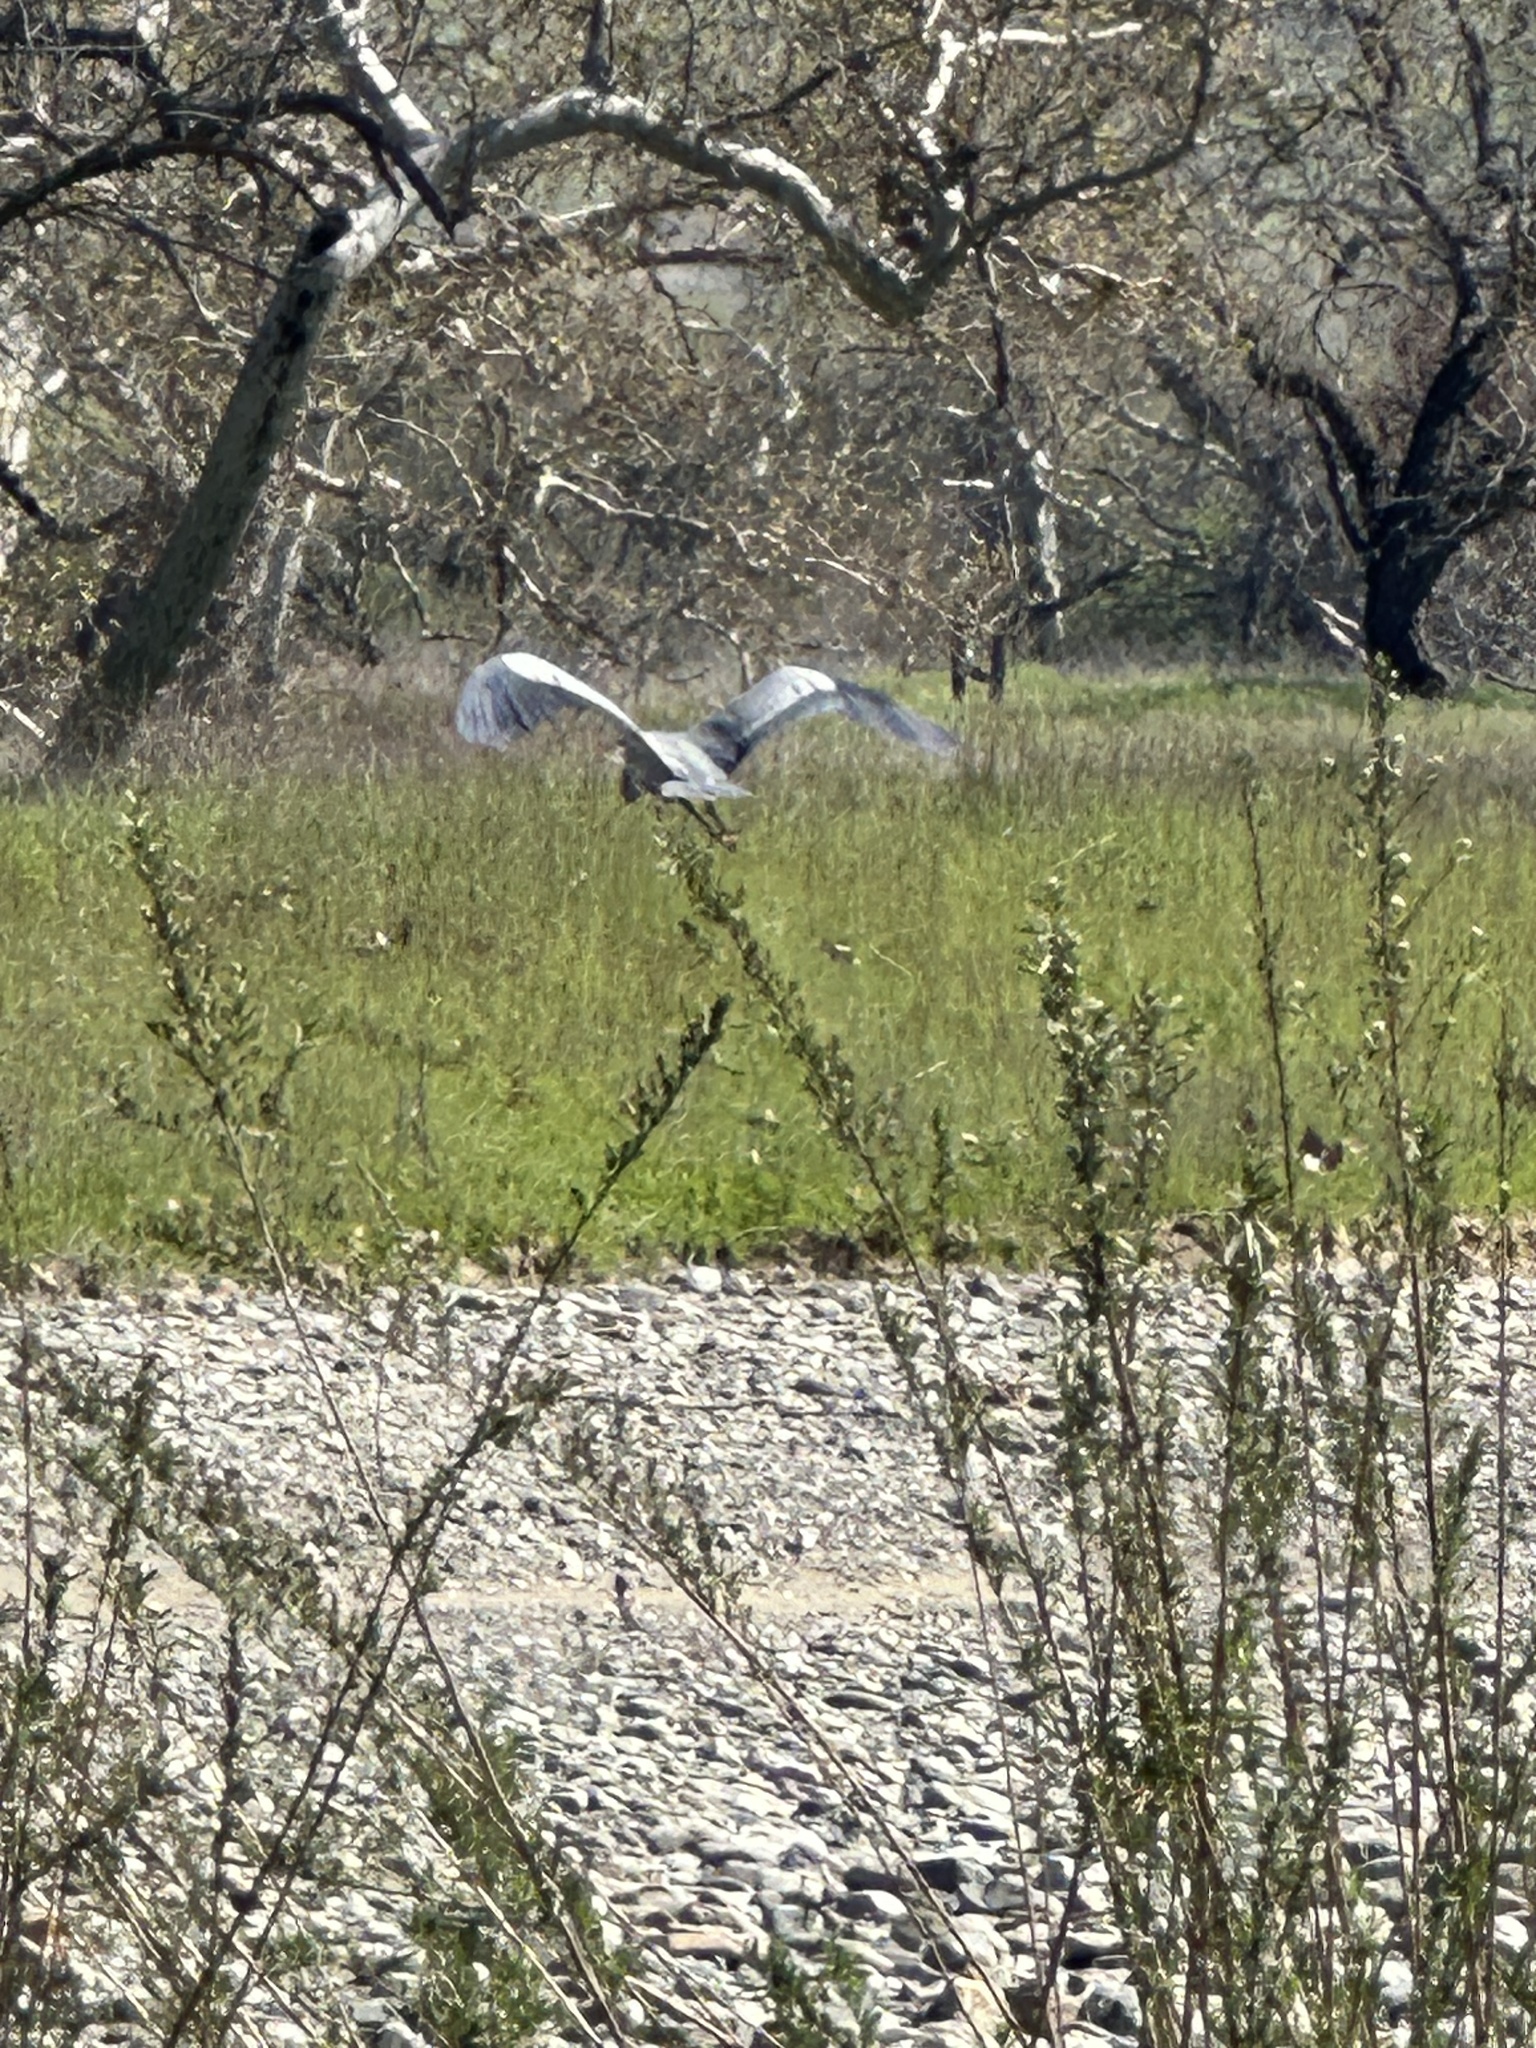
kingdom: Animalia
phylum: Chordata
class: Aves
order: Pelecaniformes
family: Ardeidae
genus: Ardea
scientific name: Ardea herodias
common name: Great blue heron
